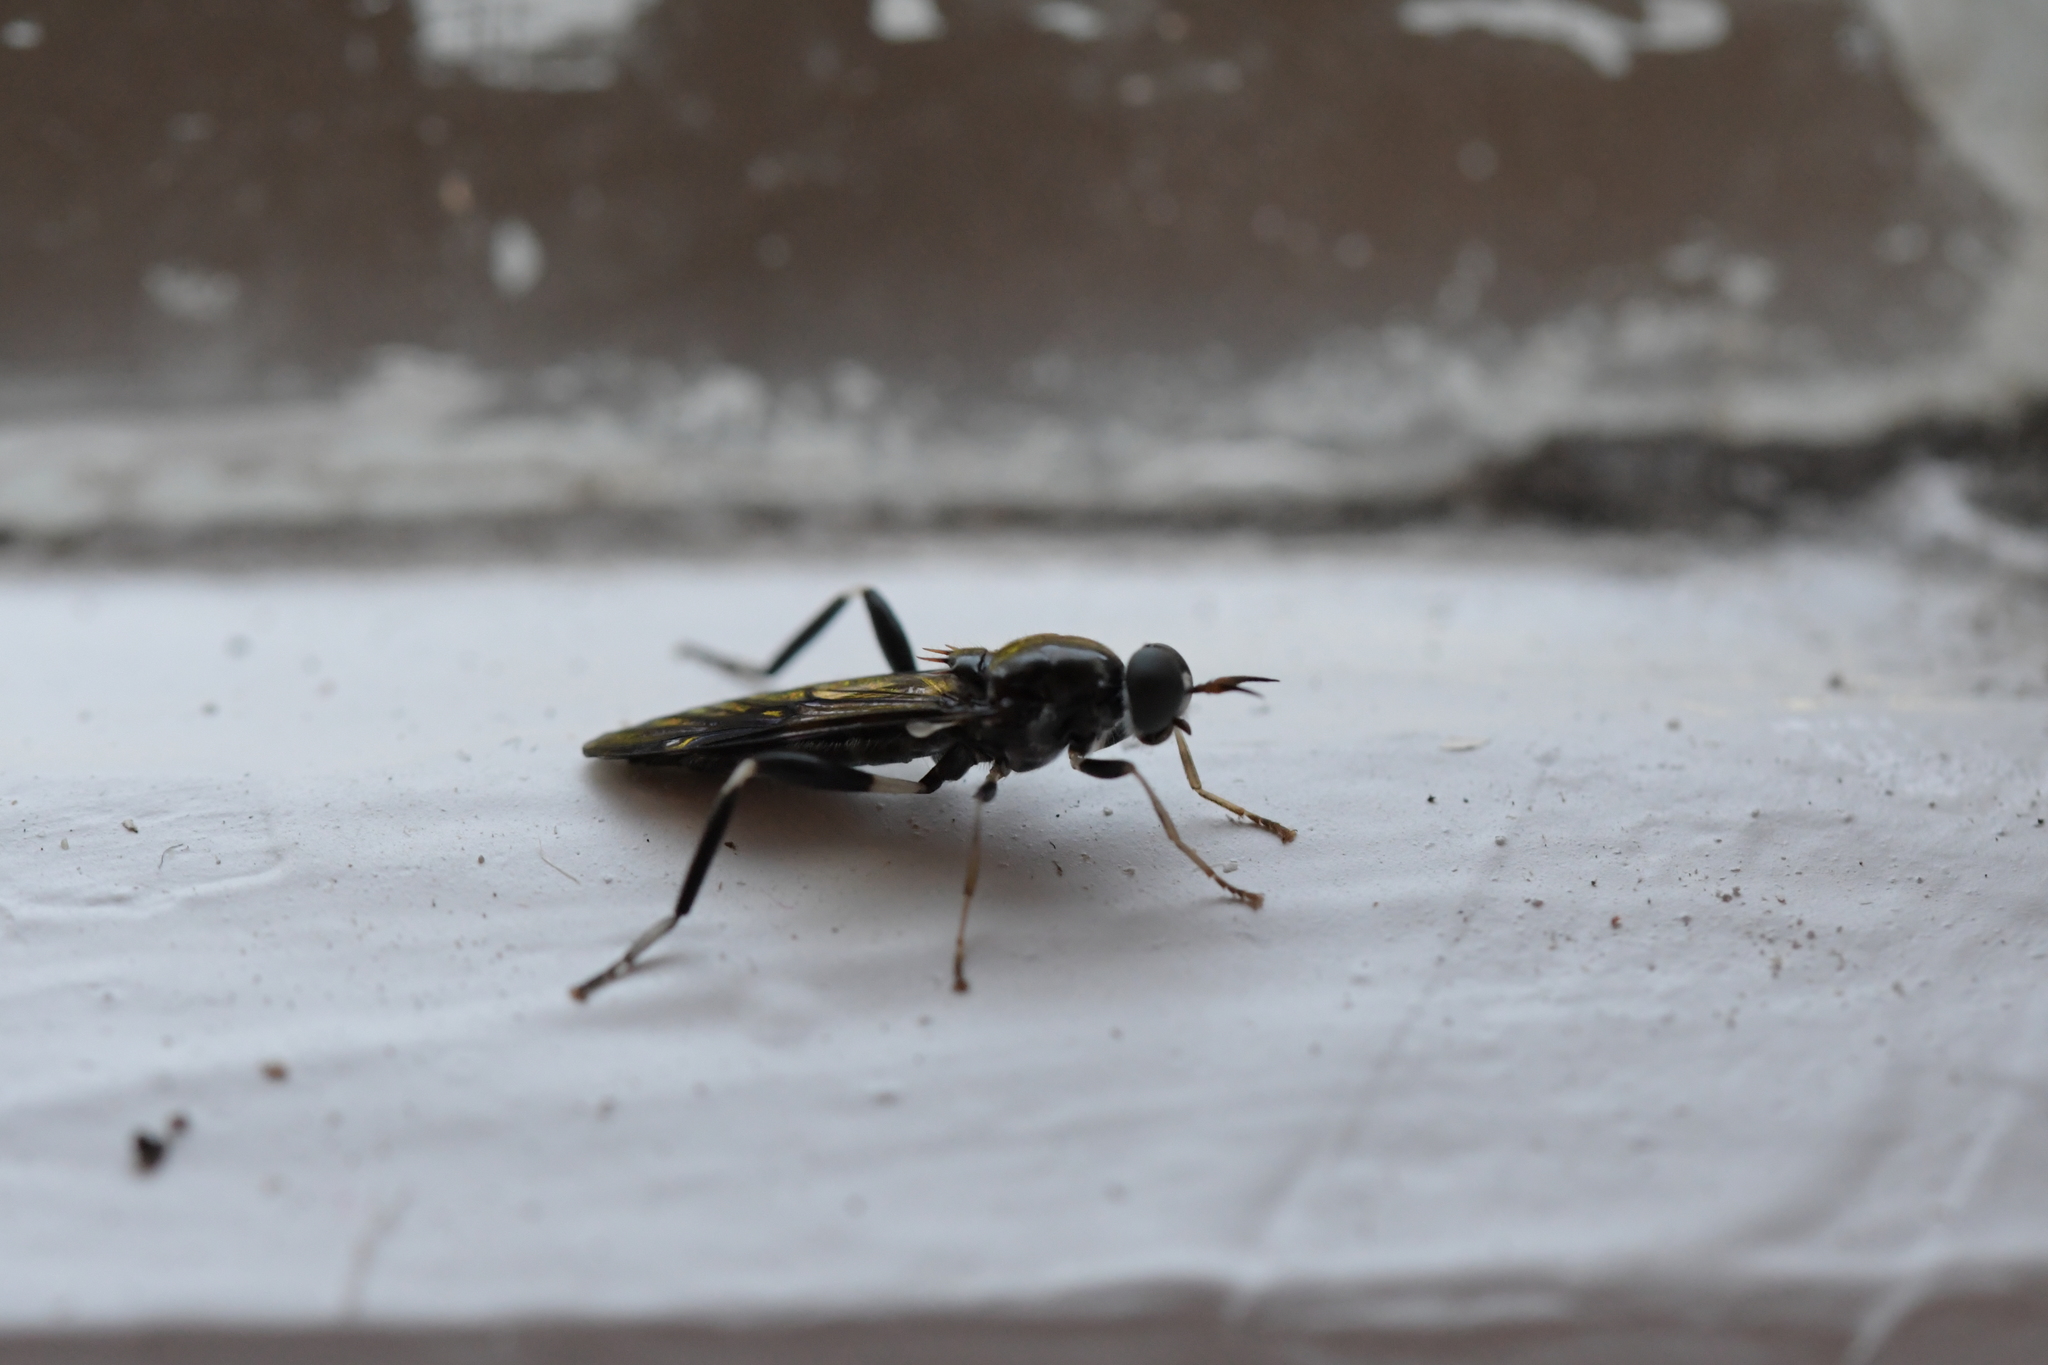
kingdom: Animalia
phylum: Arthropoda
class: Insecta
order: Diptera
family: Stratiomyidae
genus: Exaireta
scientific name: Exaireta spinigera
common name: Blue soldier fly
